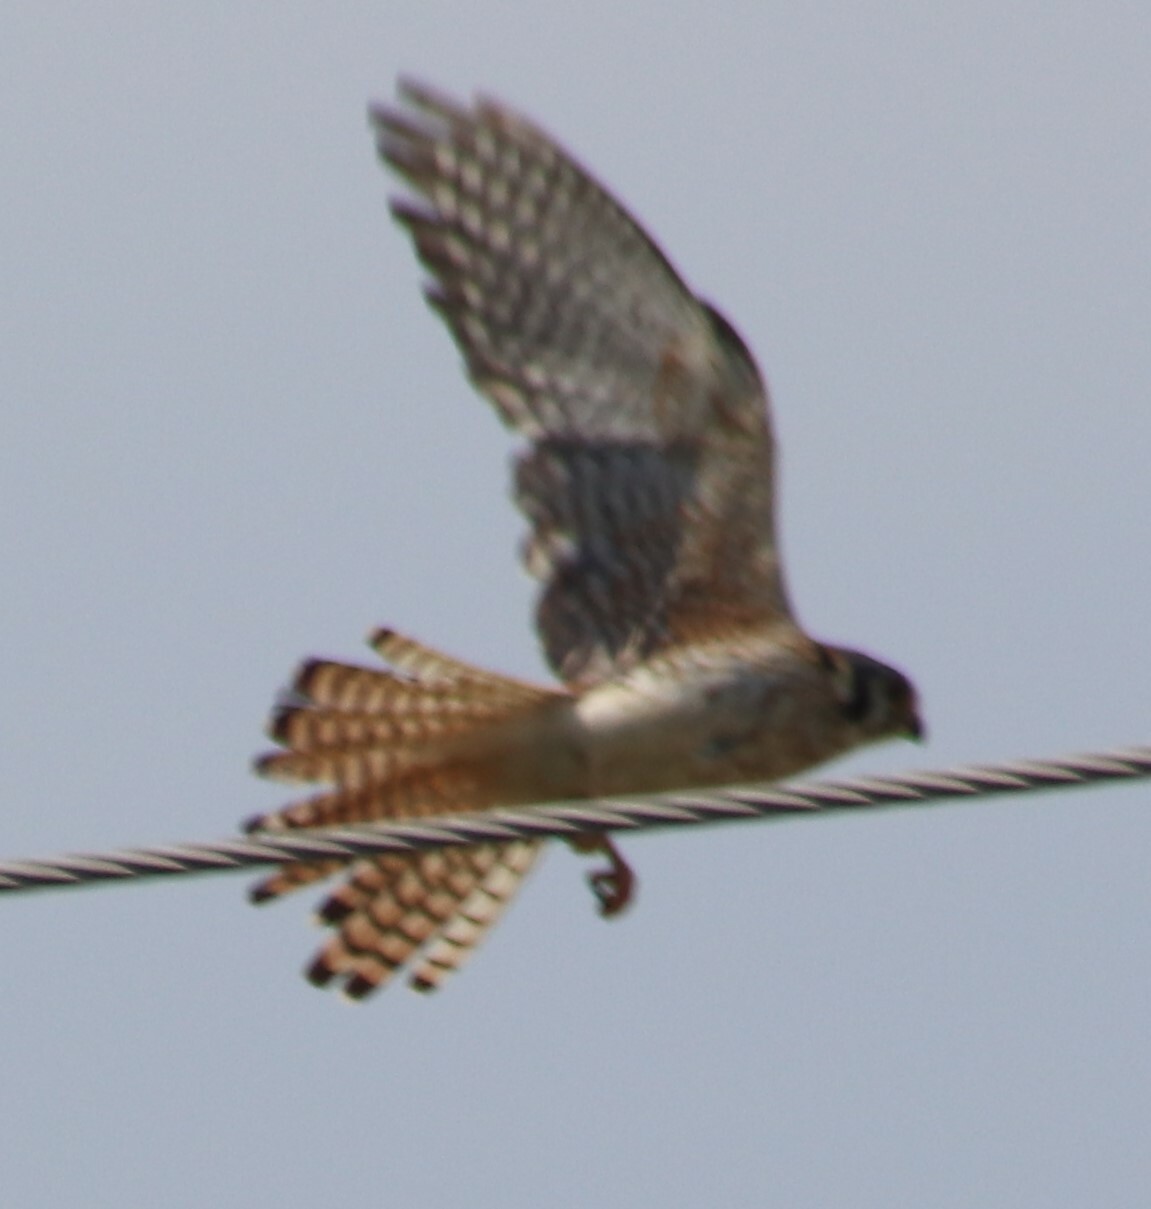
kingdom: Animalia
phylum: Chordata
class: Aves
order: Falconiformes
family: Falconidae
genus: Falco
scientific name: Falco sparverius
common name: American kestrel
